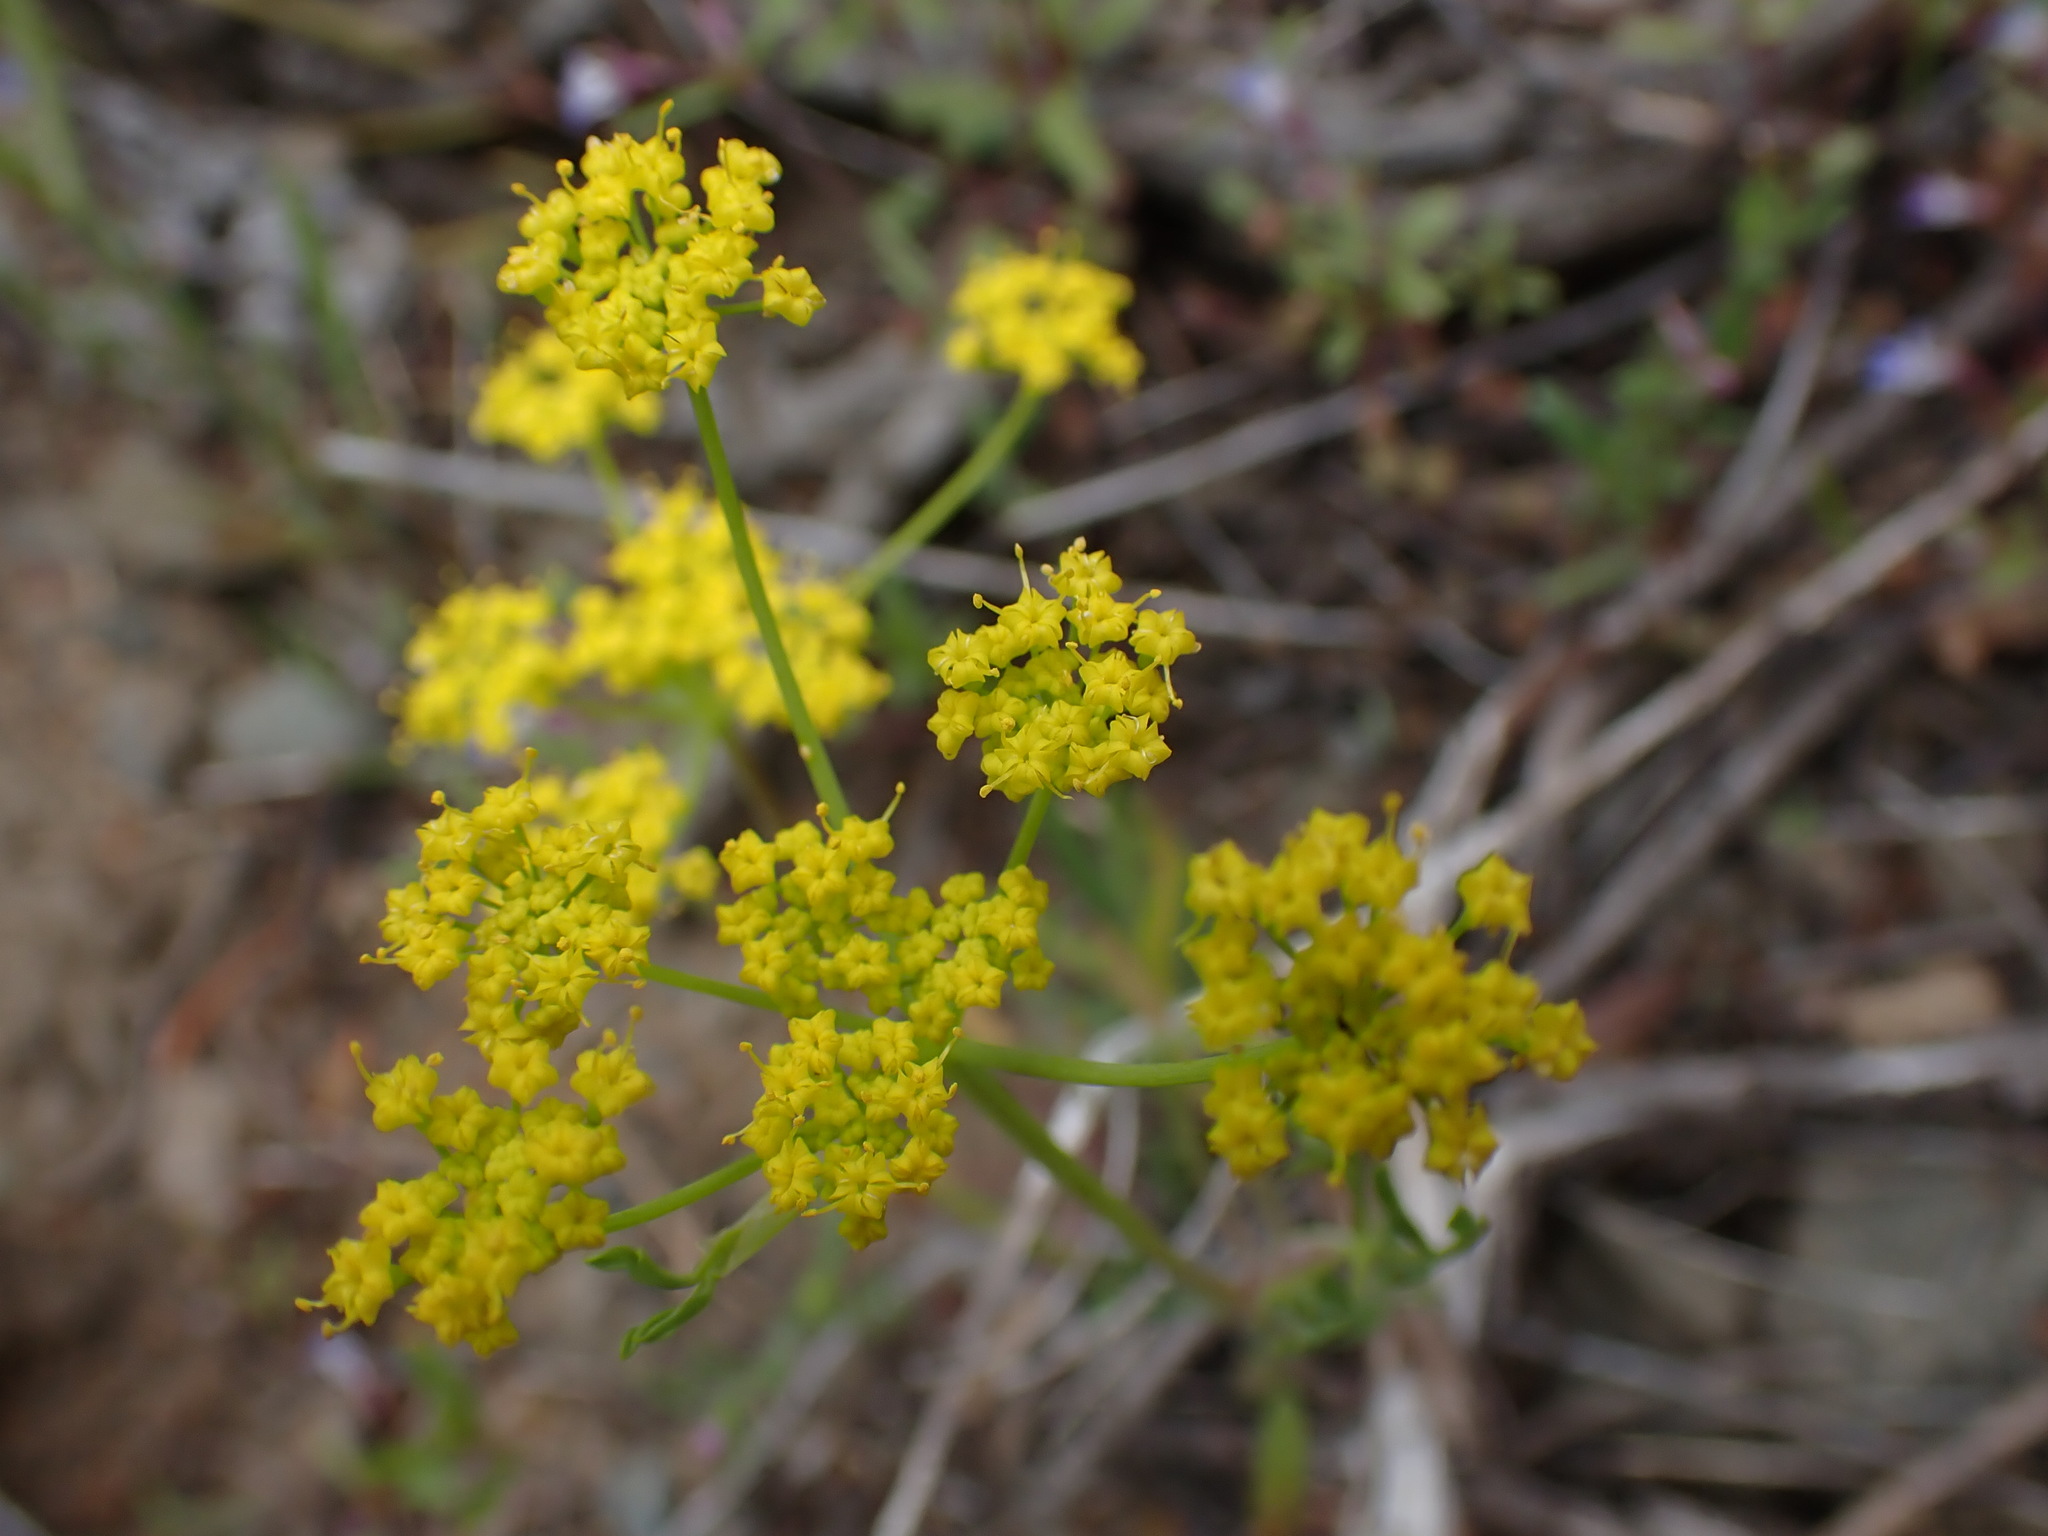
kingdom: Plantae
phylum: Tracheophyta
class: Magnoliopsida
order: Apiales
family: Apiaceae
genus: Lomatium
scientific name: Lomatium ambiguum
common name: Lacy lomatium
